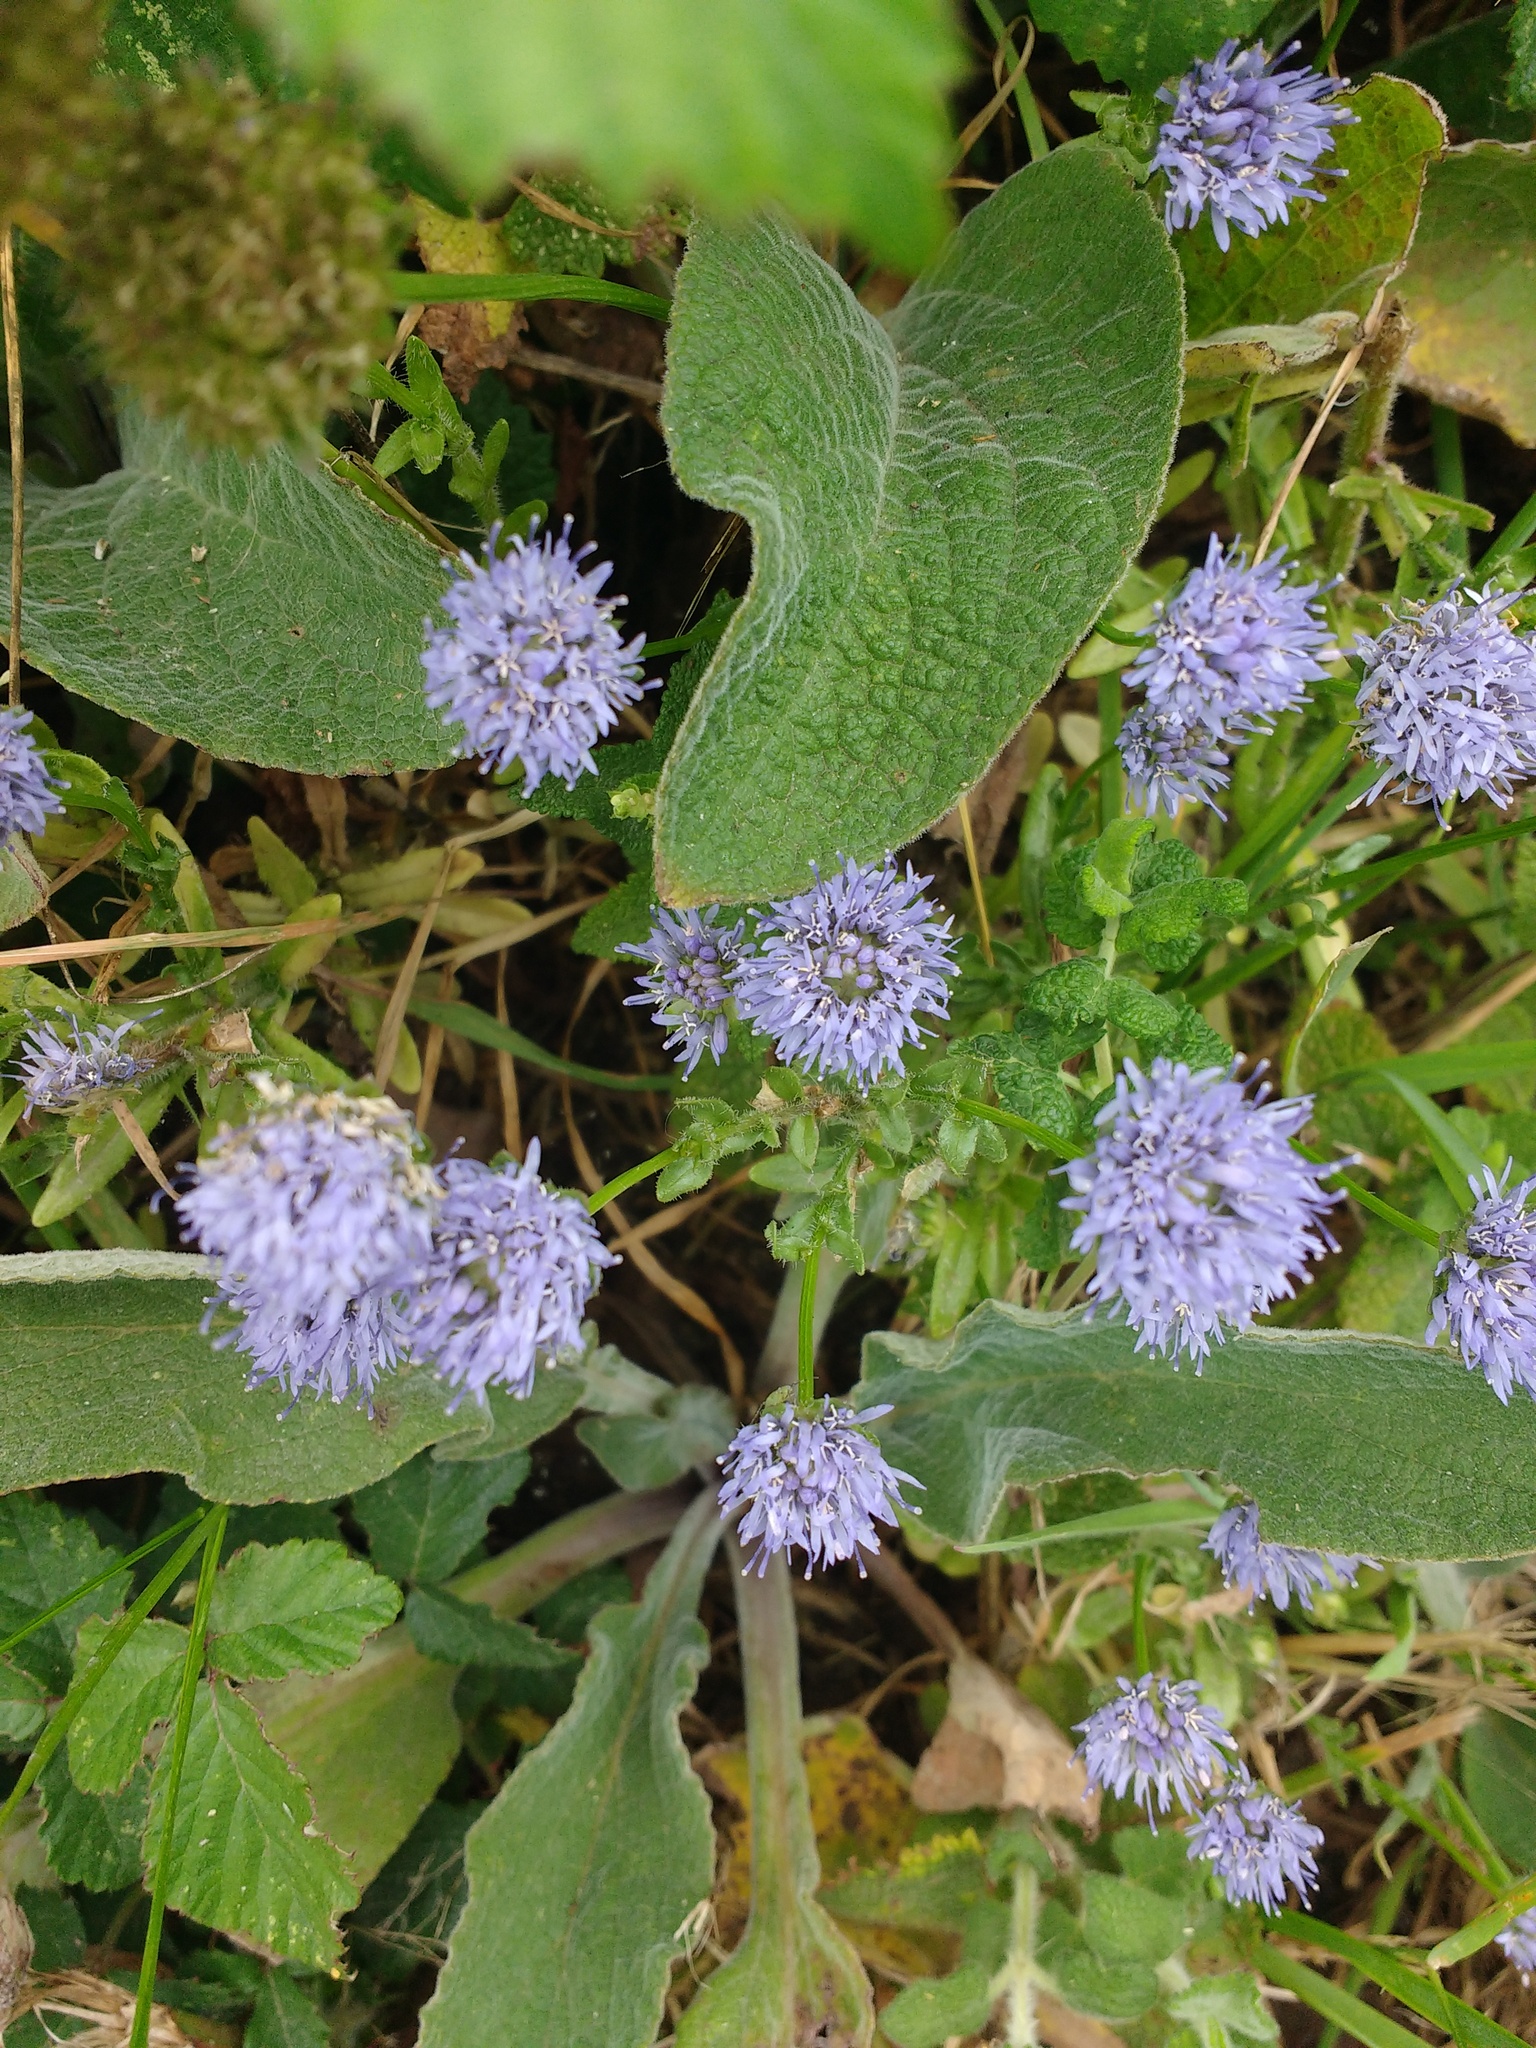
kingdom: Plantae
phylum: Tracheophyta
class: Magnoliopsida
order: Asterales
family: Campanulaceae
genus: Jasione
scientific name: Jasione montana
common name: Sheep's-bit
